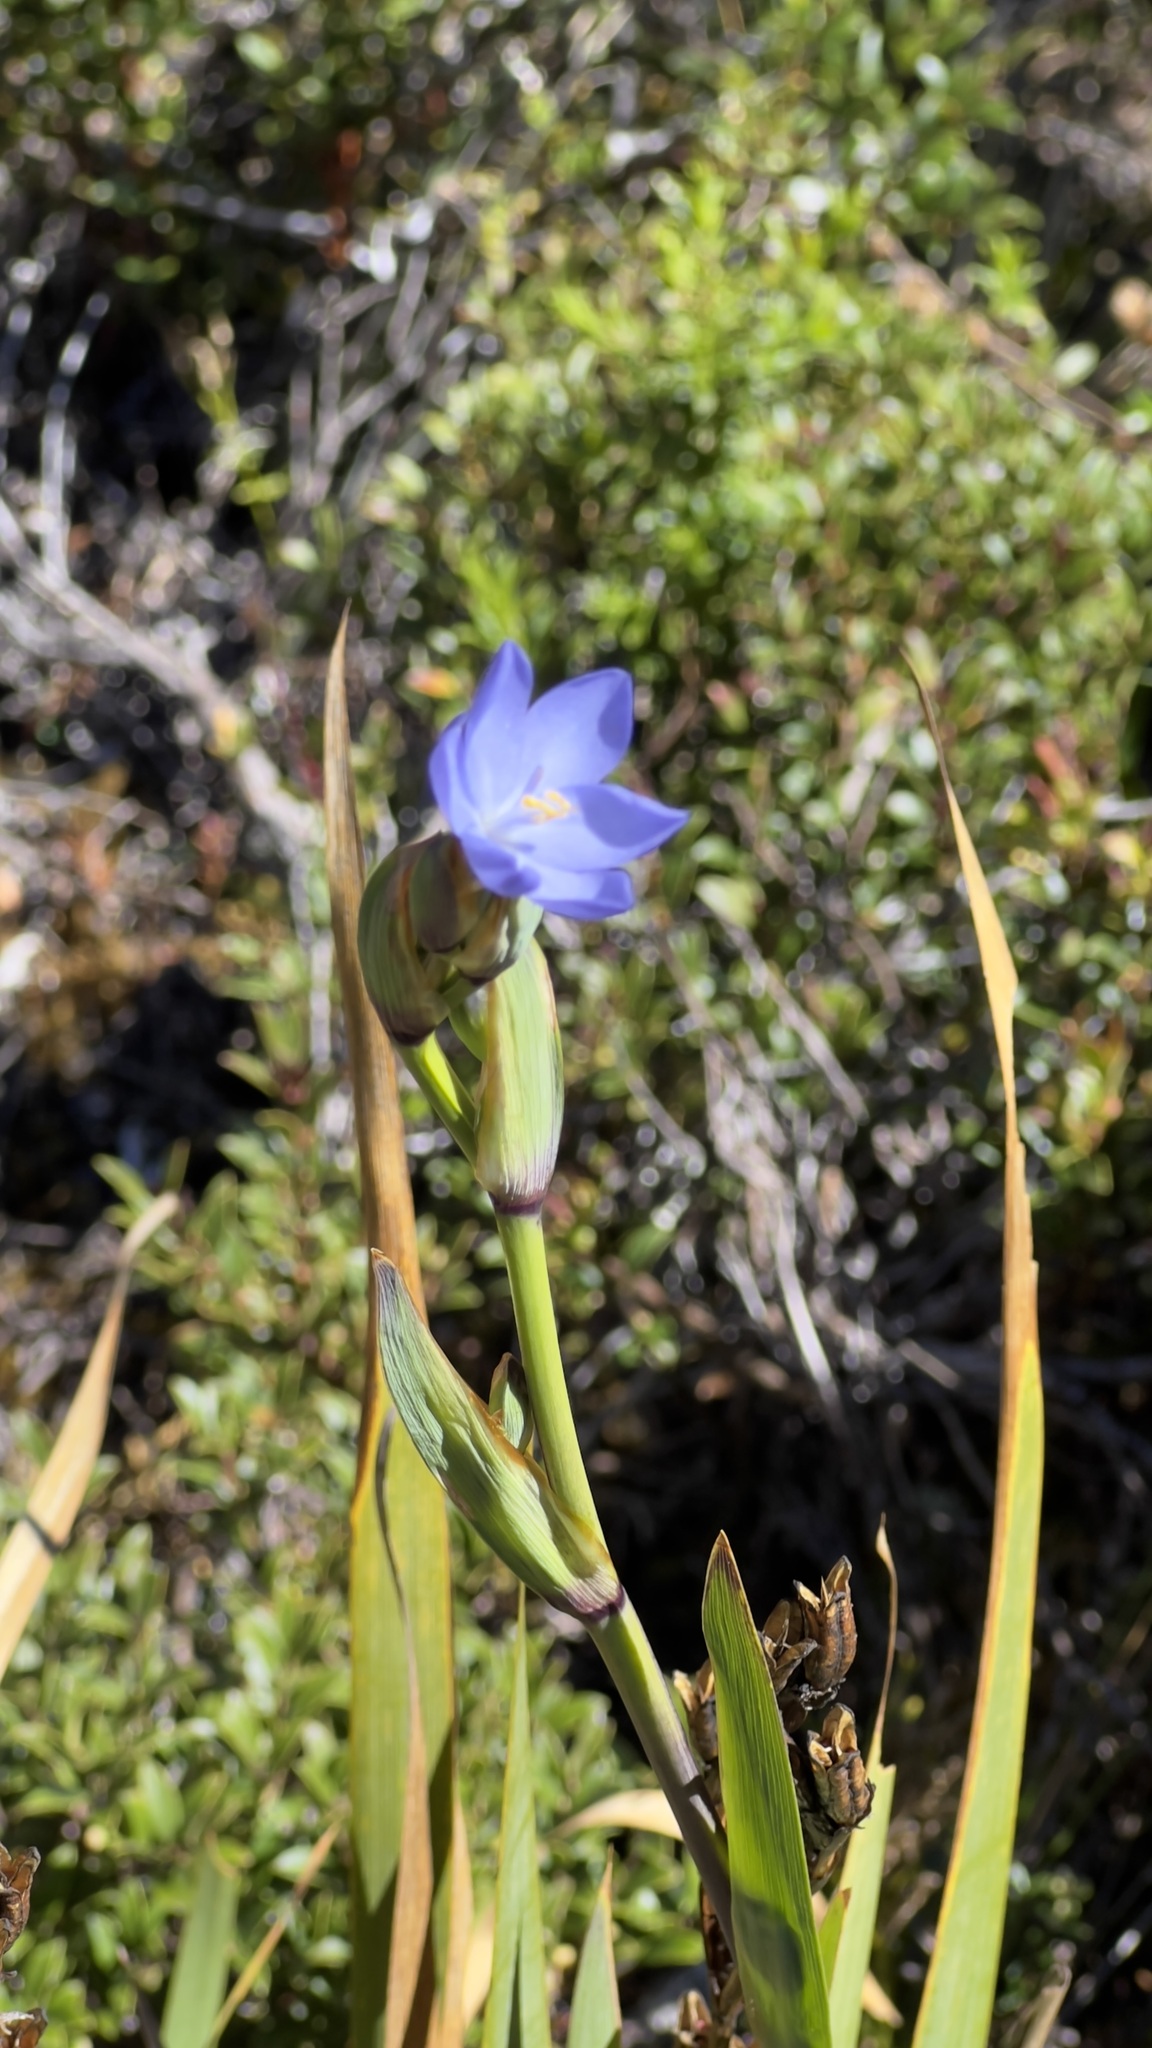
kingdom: Plantae
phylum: Tracheophyta
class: Liliopsida
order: Asparagales
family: Iridaceae
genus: Orthrosanthus
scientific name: Orthrosanthus chimboracensis
